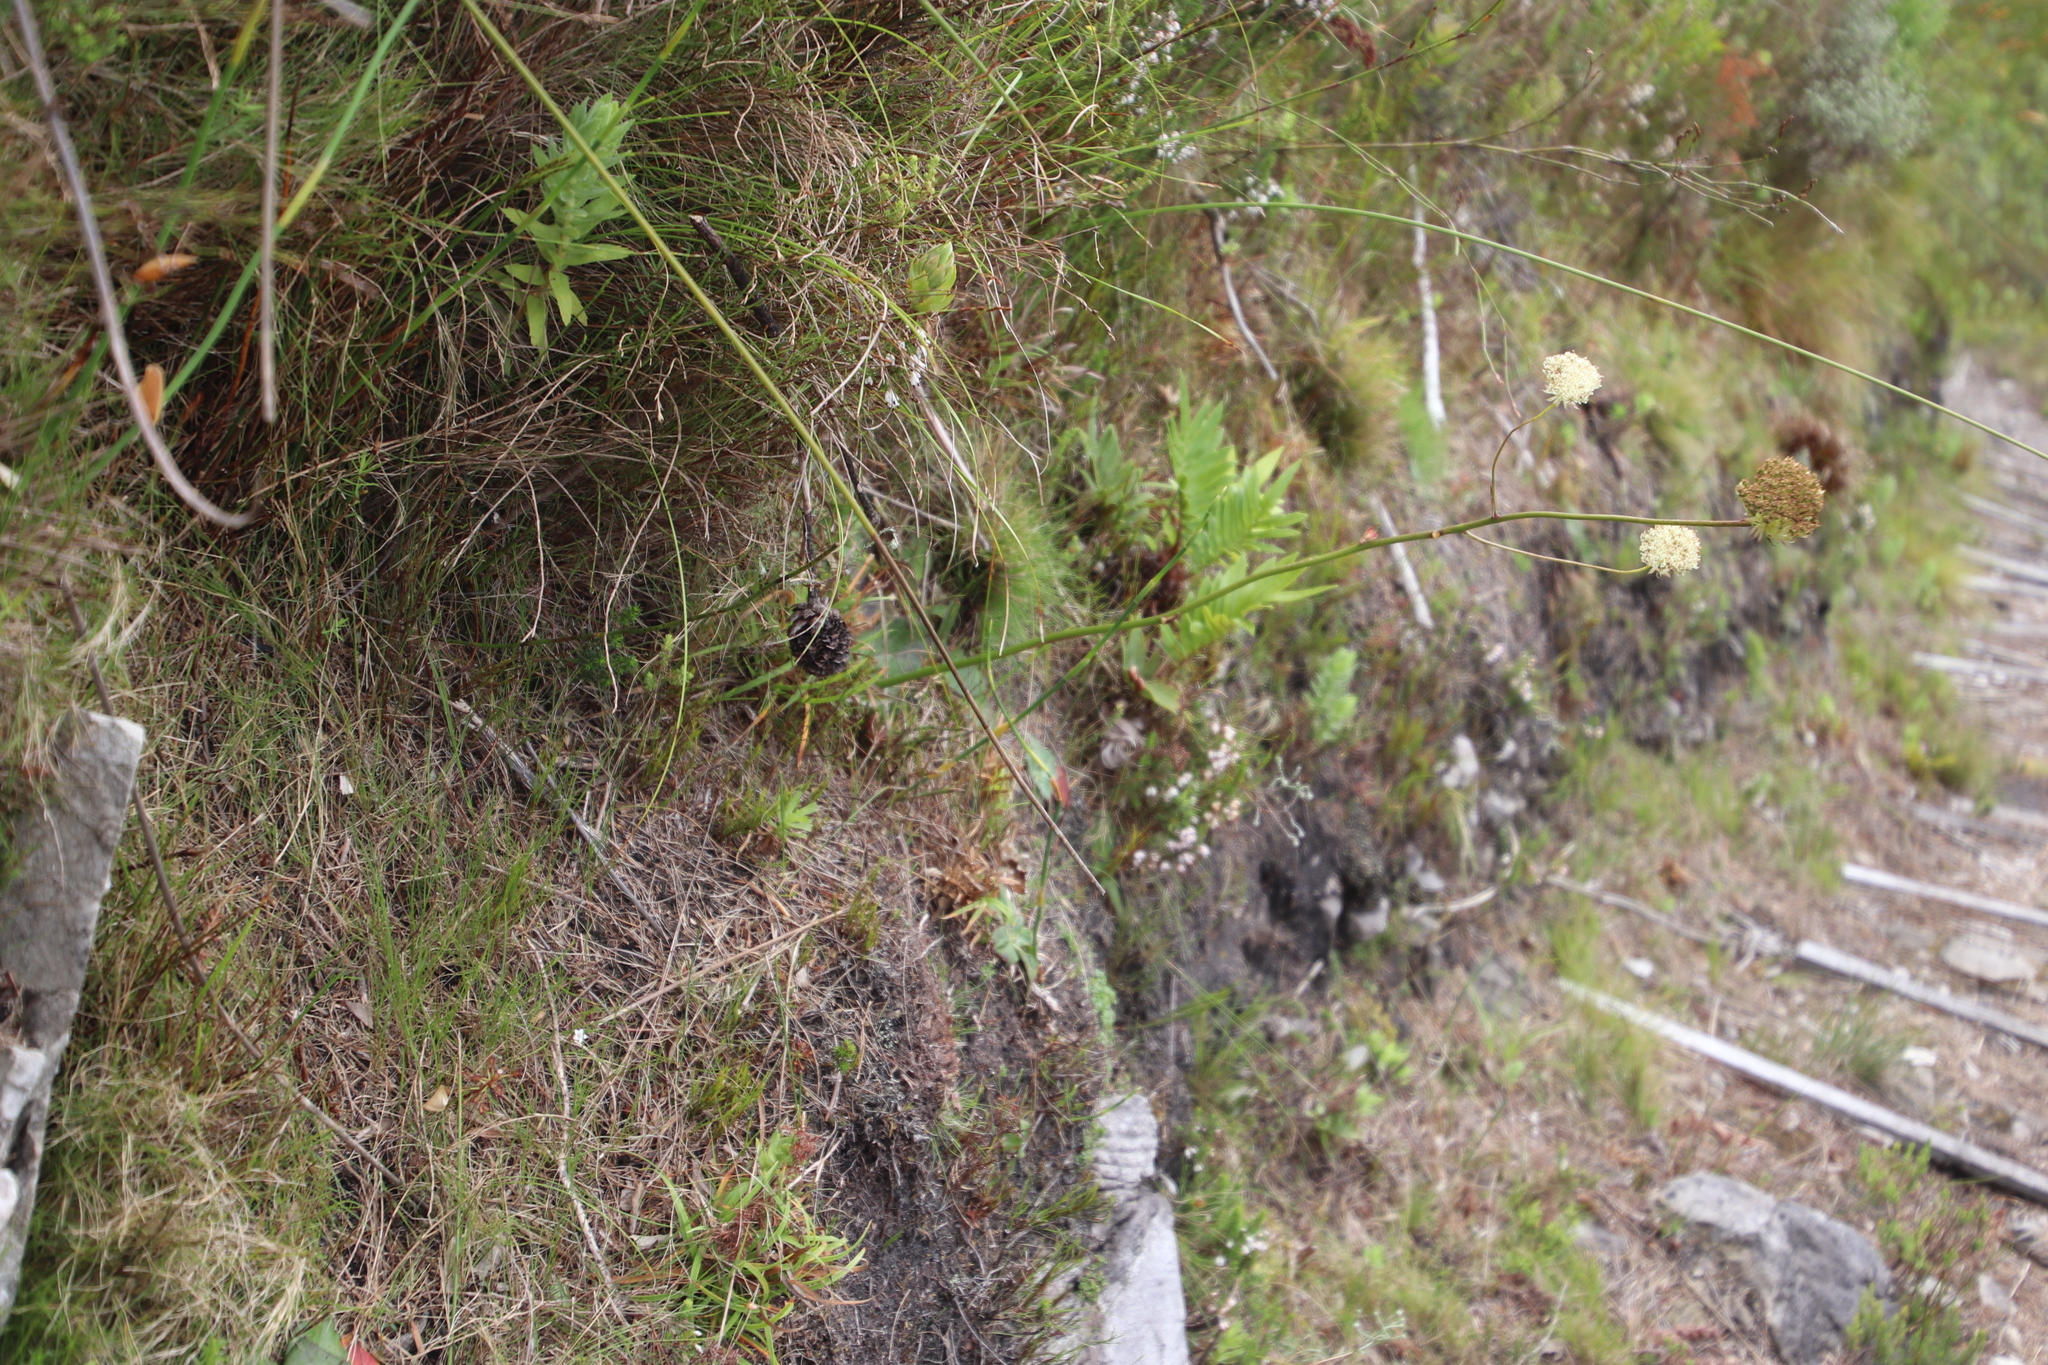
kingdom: Plantae
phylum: Tracheophyta
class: Magnoliopsida
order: Apiales
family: Apiaceae
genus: Hermas
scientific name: Hermas ciliata
